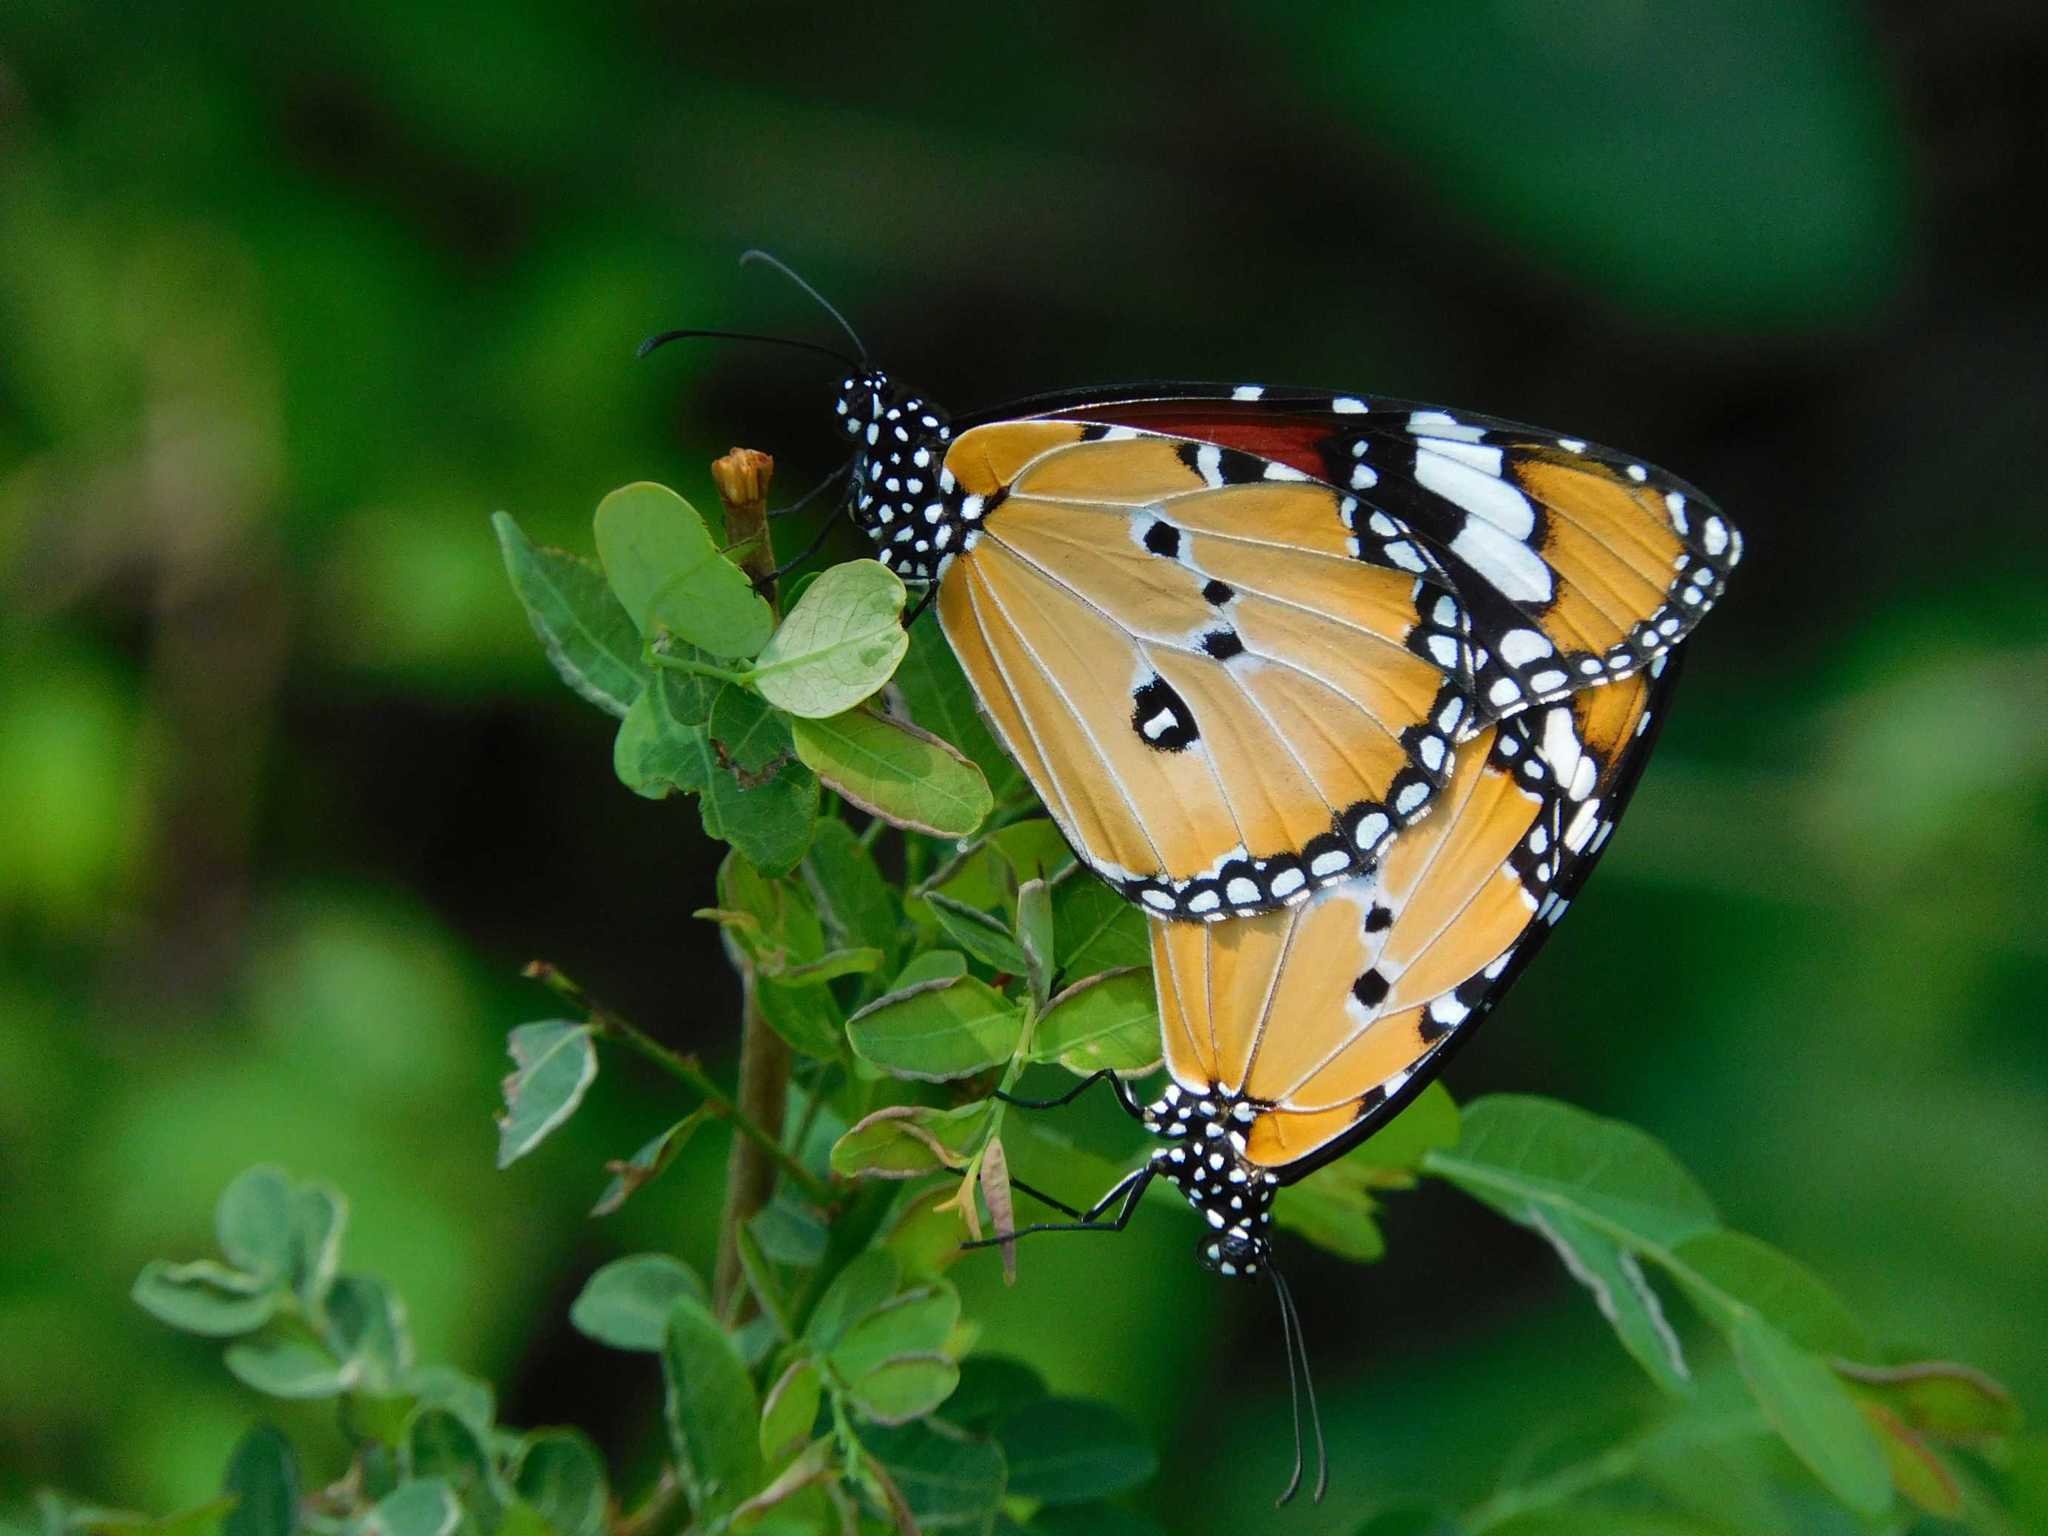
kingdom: Animalia
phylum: Arthropoda
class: Insecta
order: Lepidoptera
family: Nymphalidae
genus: Danaus
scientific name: Danaus chrysippus
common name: Plain tiger
